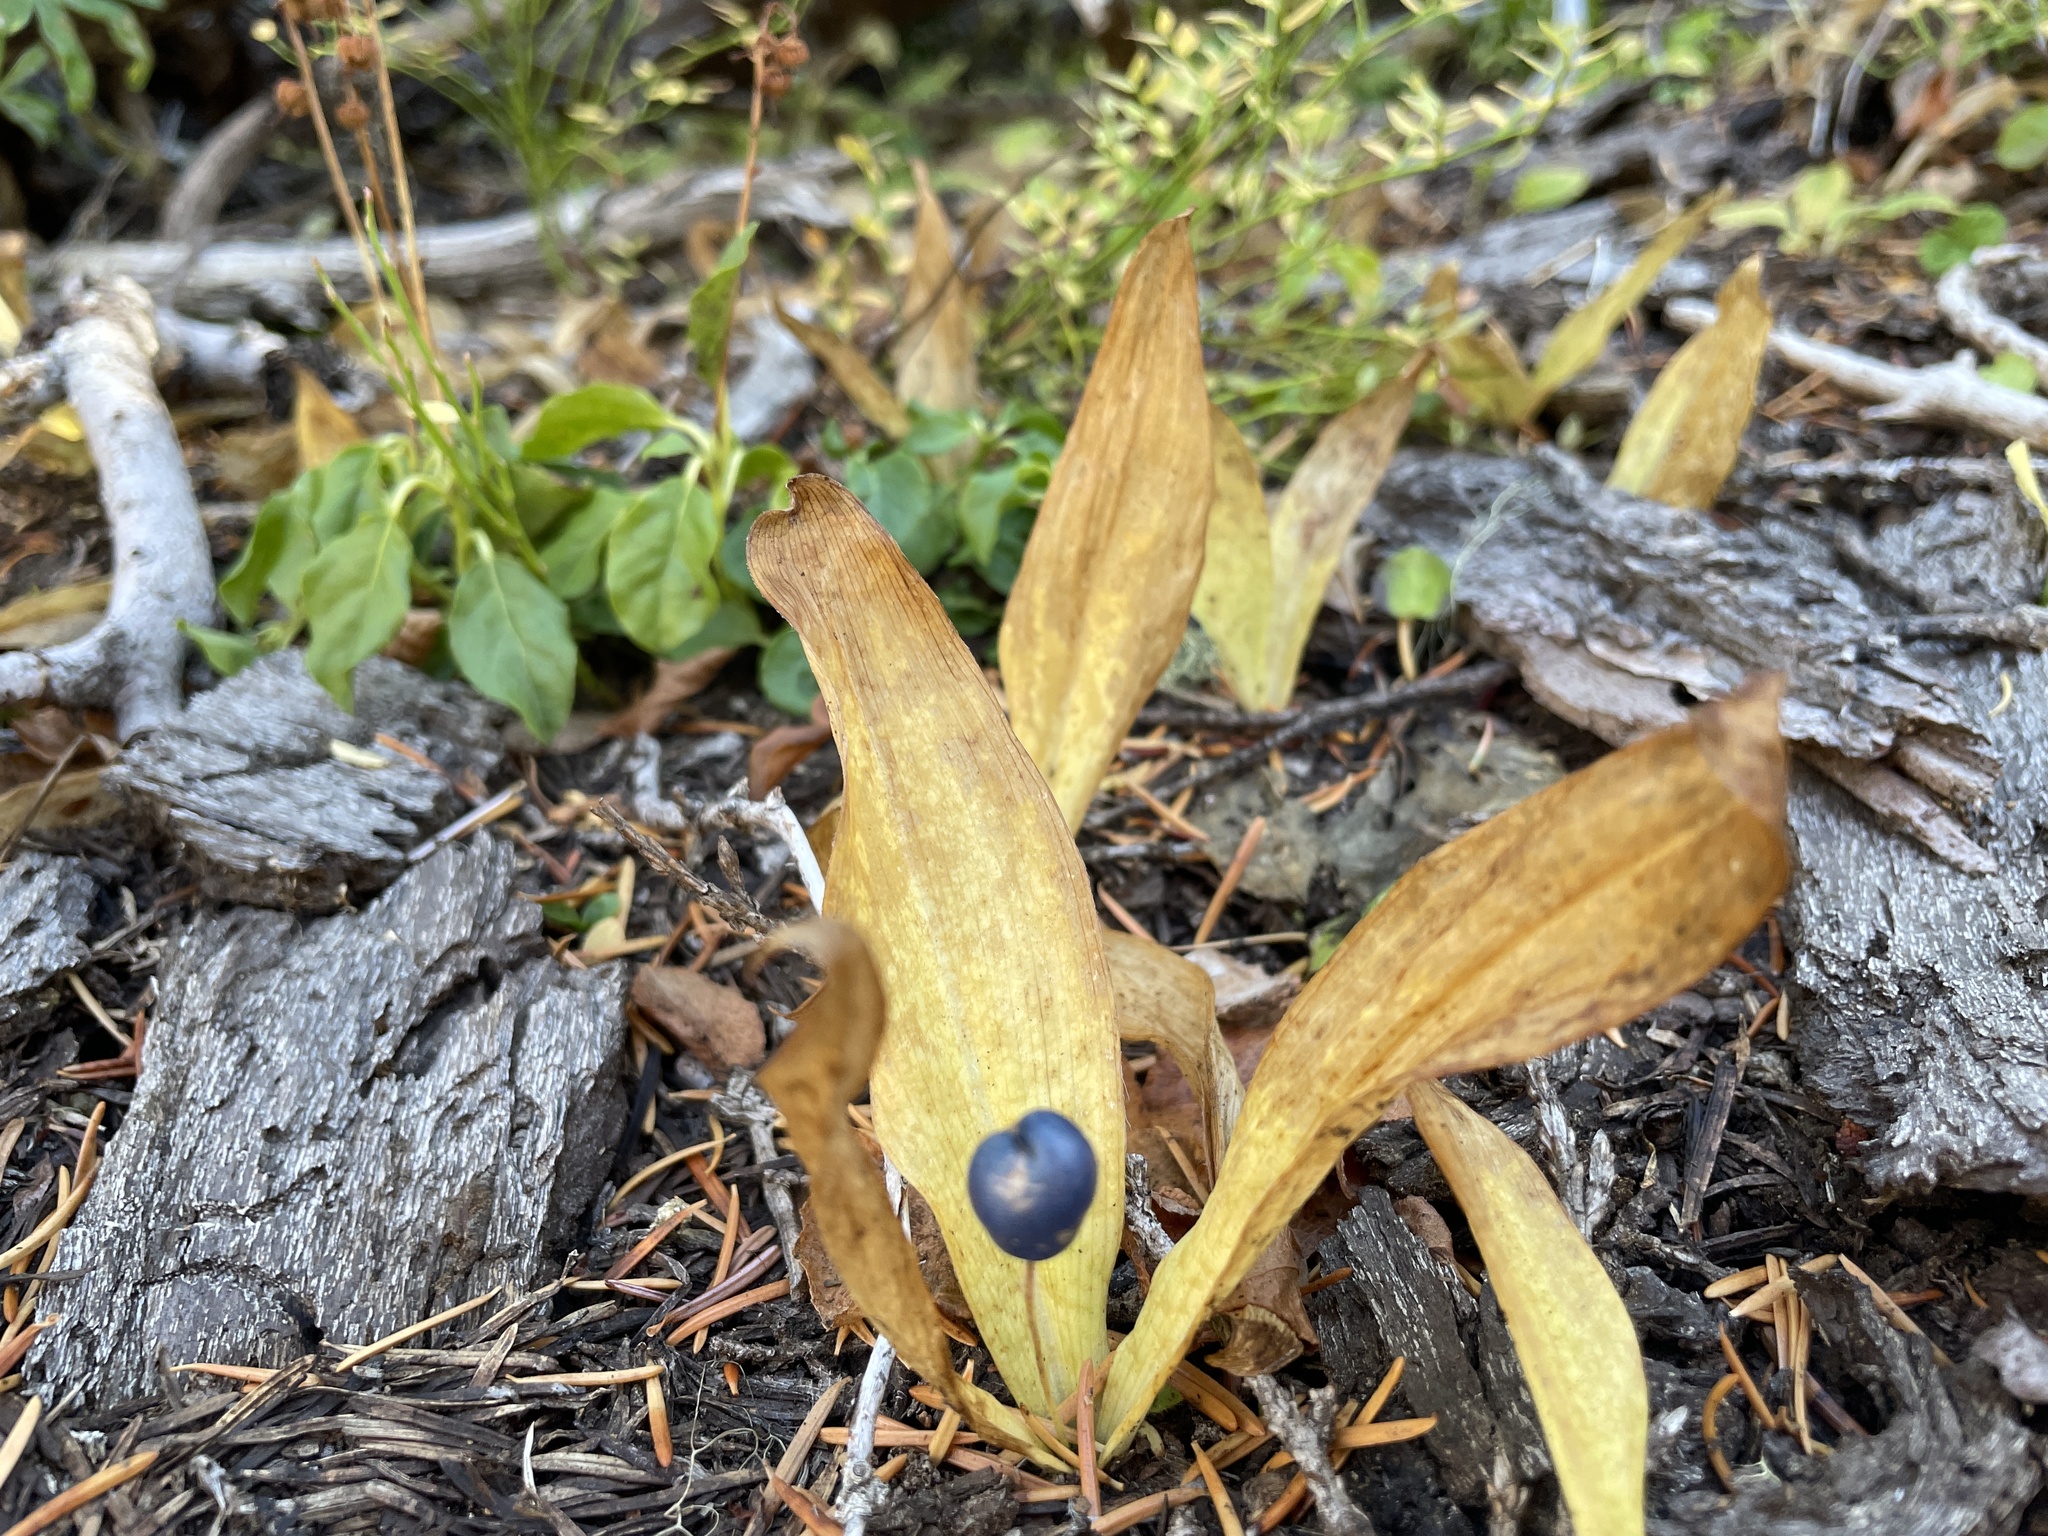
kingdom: Plantae
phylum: Tracheophyta
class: Liliopsida
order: Liliales
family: Liliaceae
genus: Clintonia
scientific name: Clintonia uniflora
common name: Queen's cup
